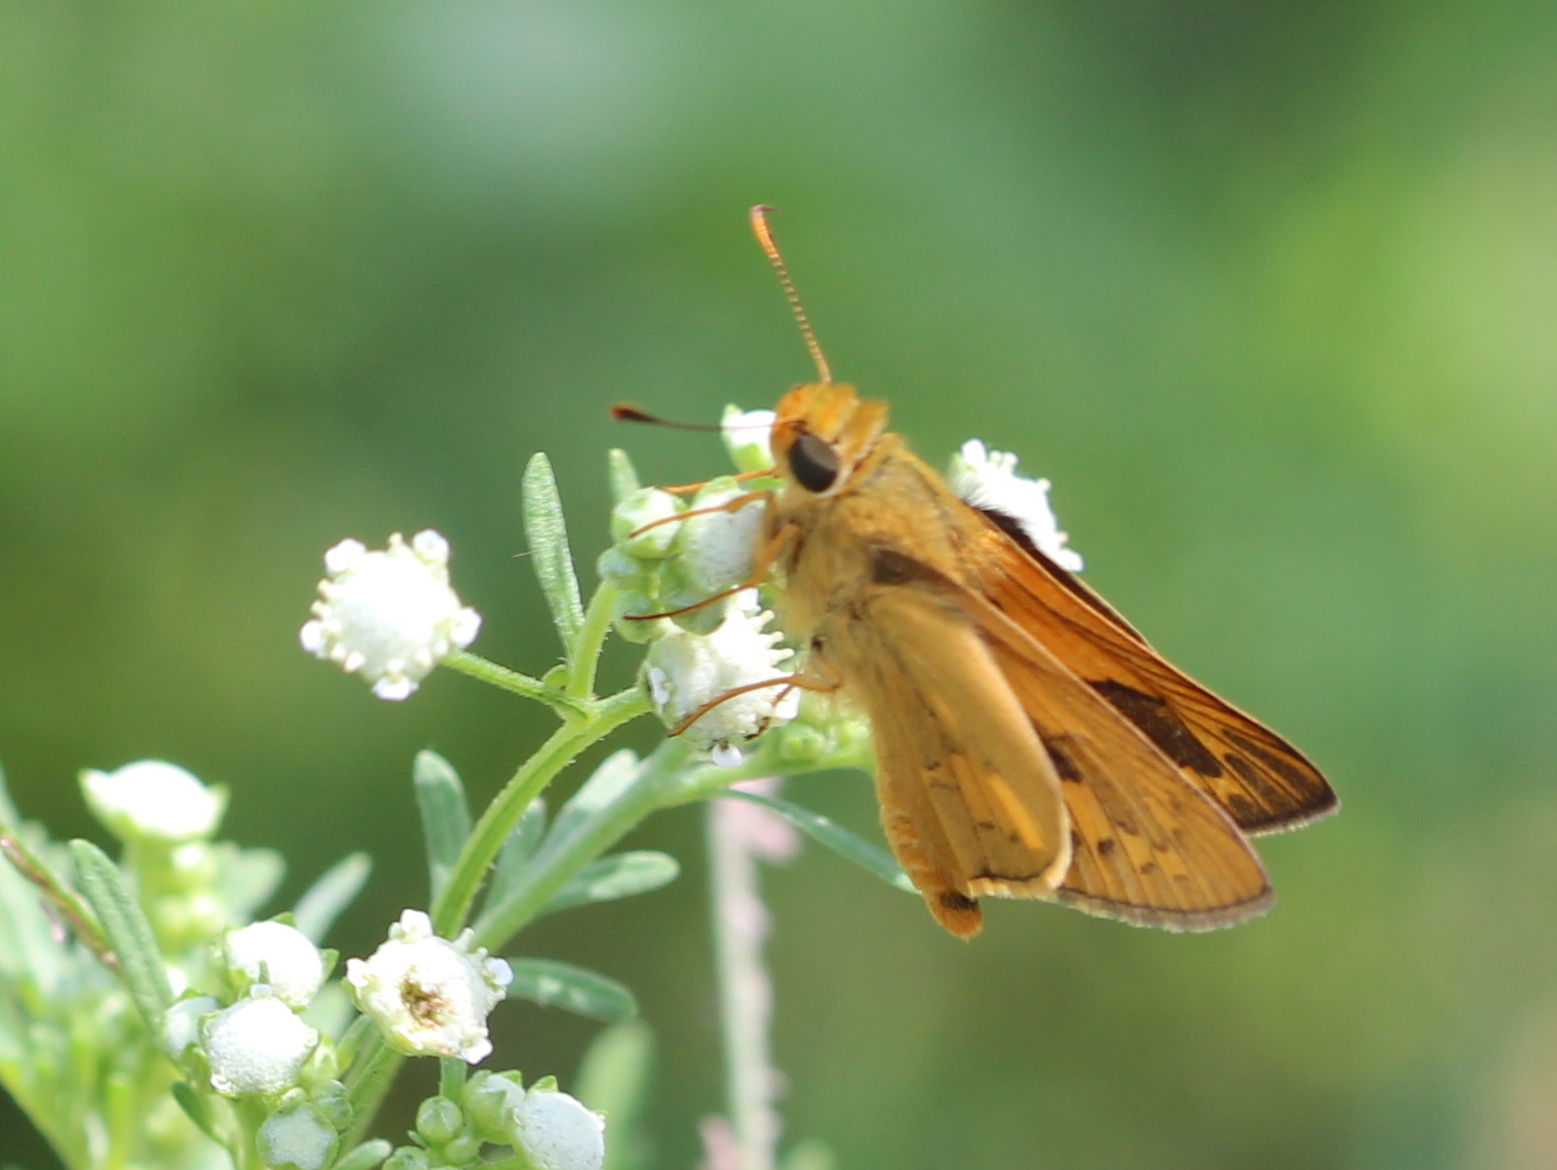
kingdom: Animalia
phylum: Arthropoda
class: Insecta
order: Lepidoptera
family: Hesperiidae
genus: Telicota
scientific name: Telicota colon
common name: Pale palm dart
